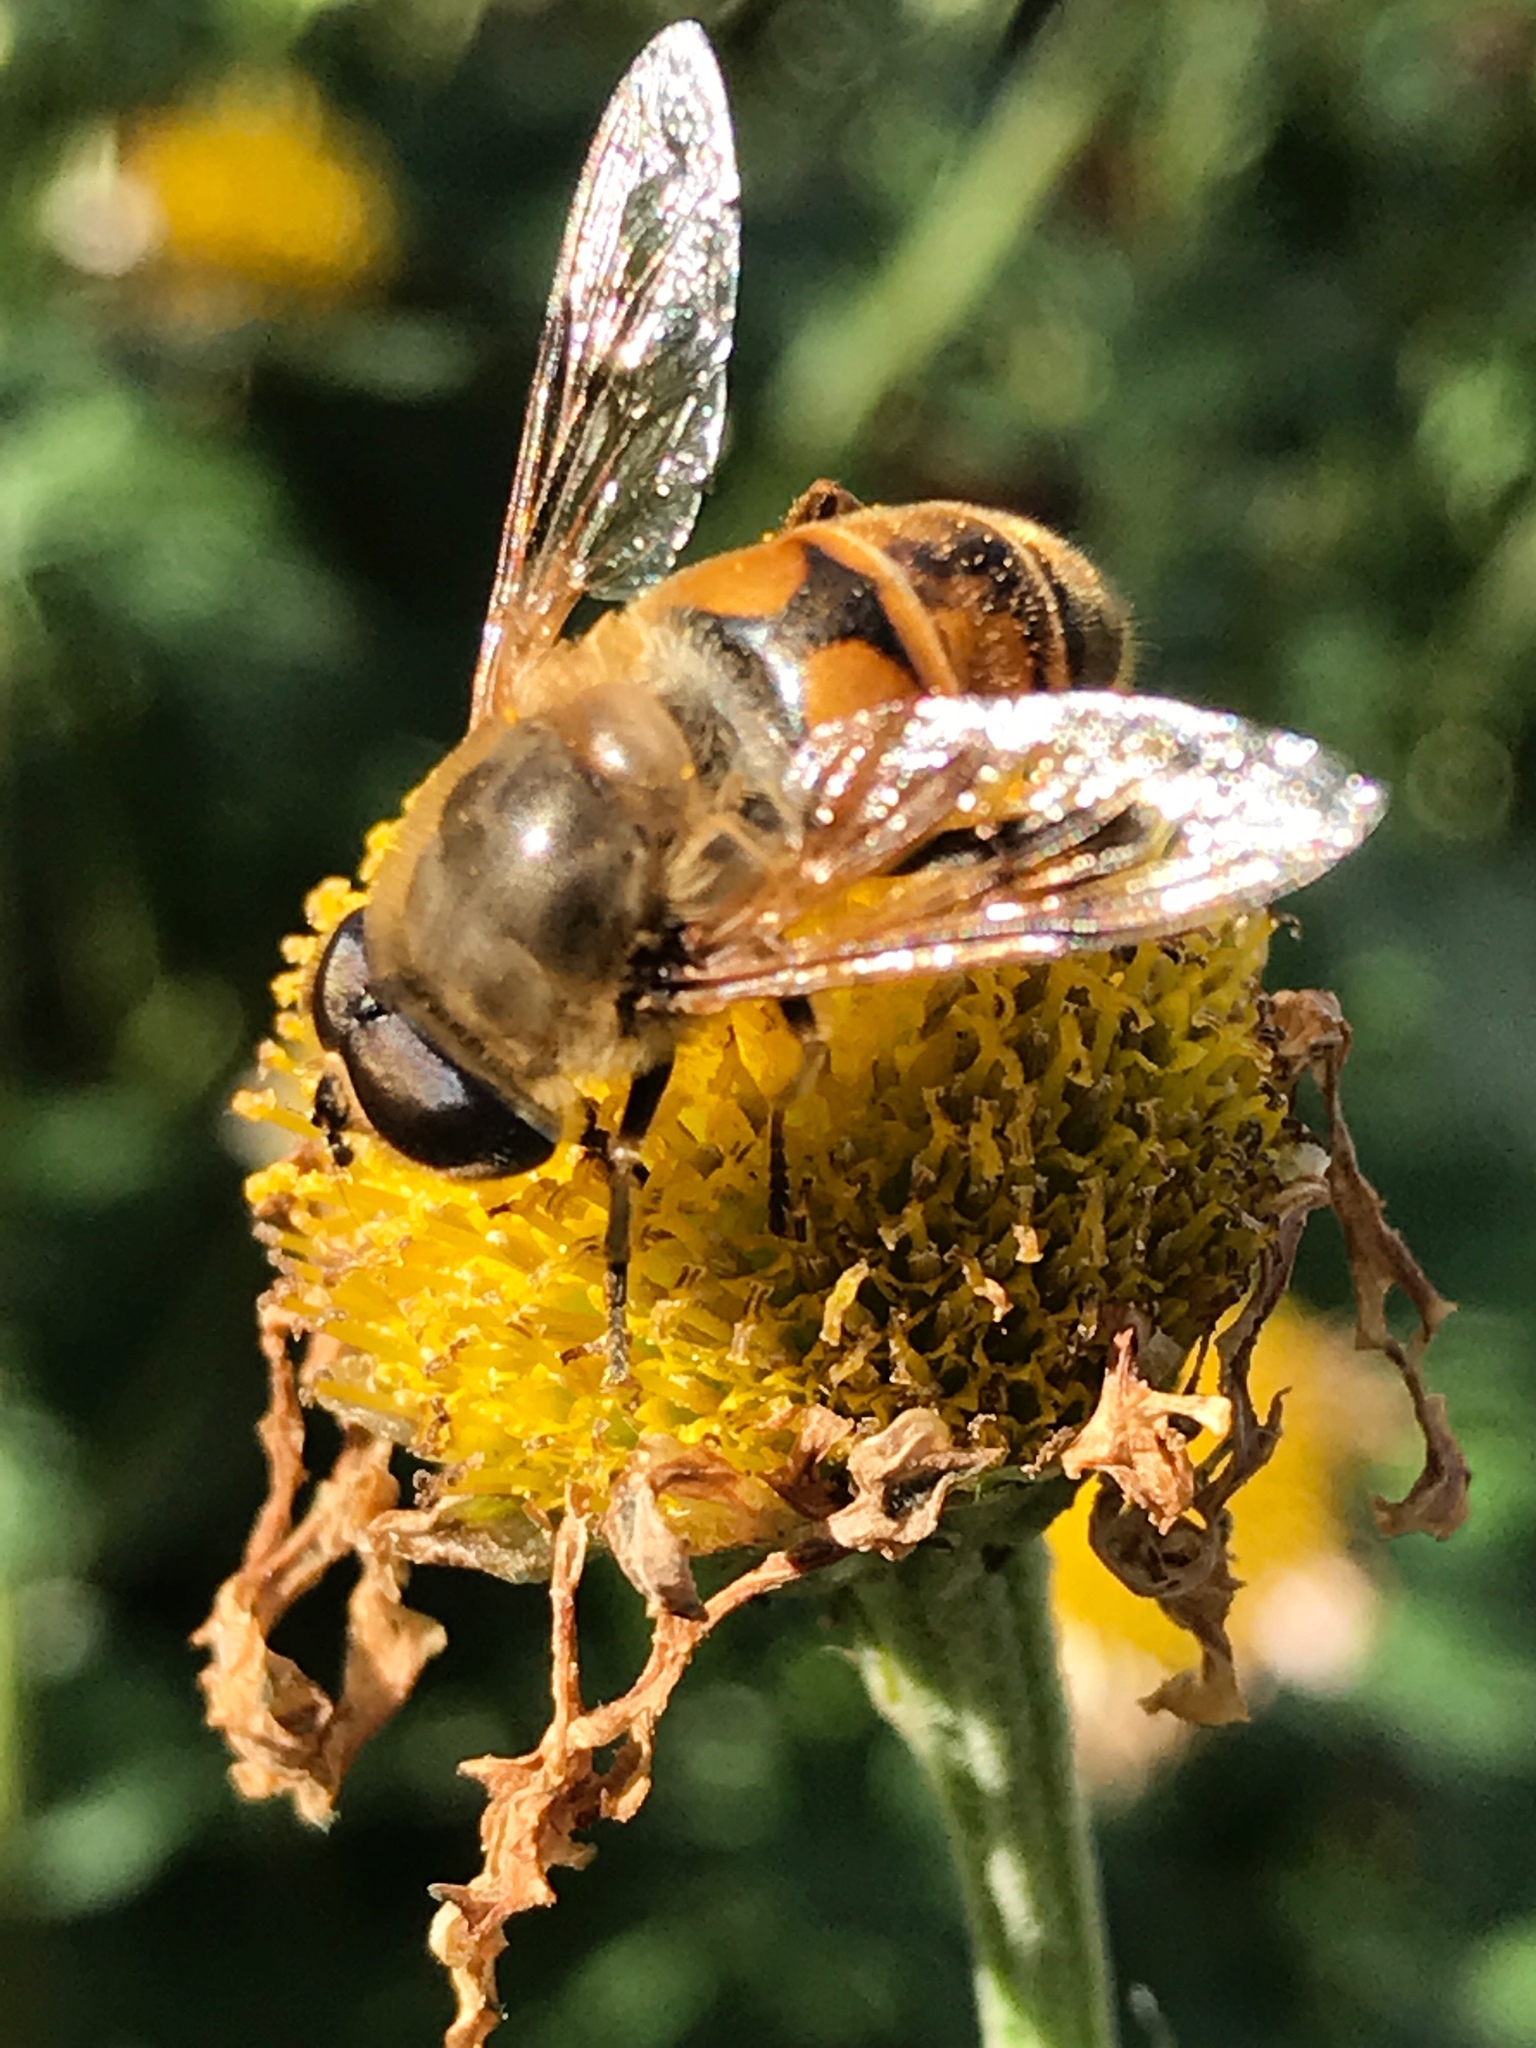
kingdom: Animalia
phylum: Arthropoda
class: Insecta
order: Diptera
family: Syrphidae
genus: Eristalis
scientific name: Eristalis tenax
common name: Drone fly
